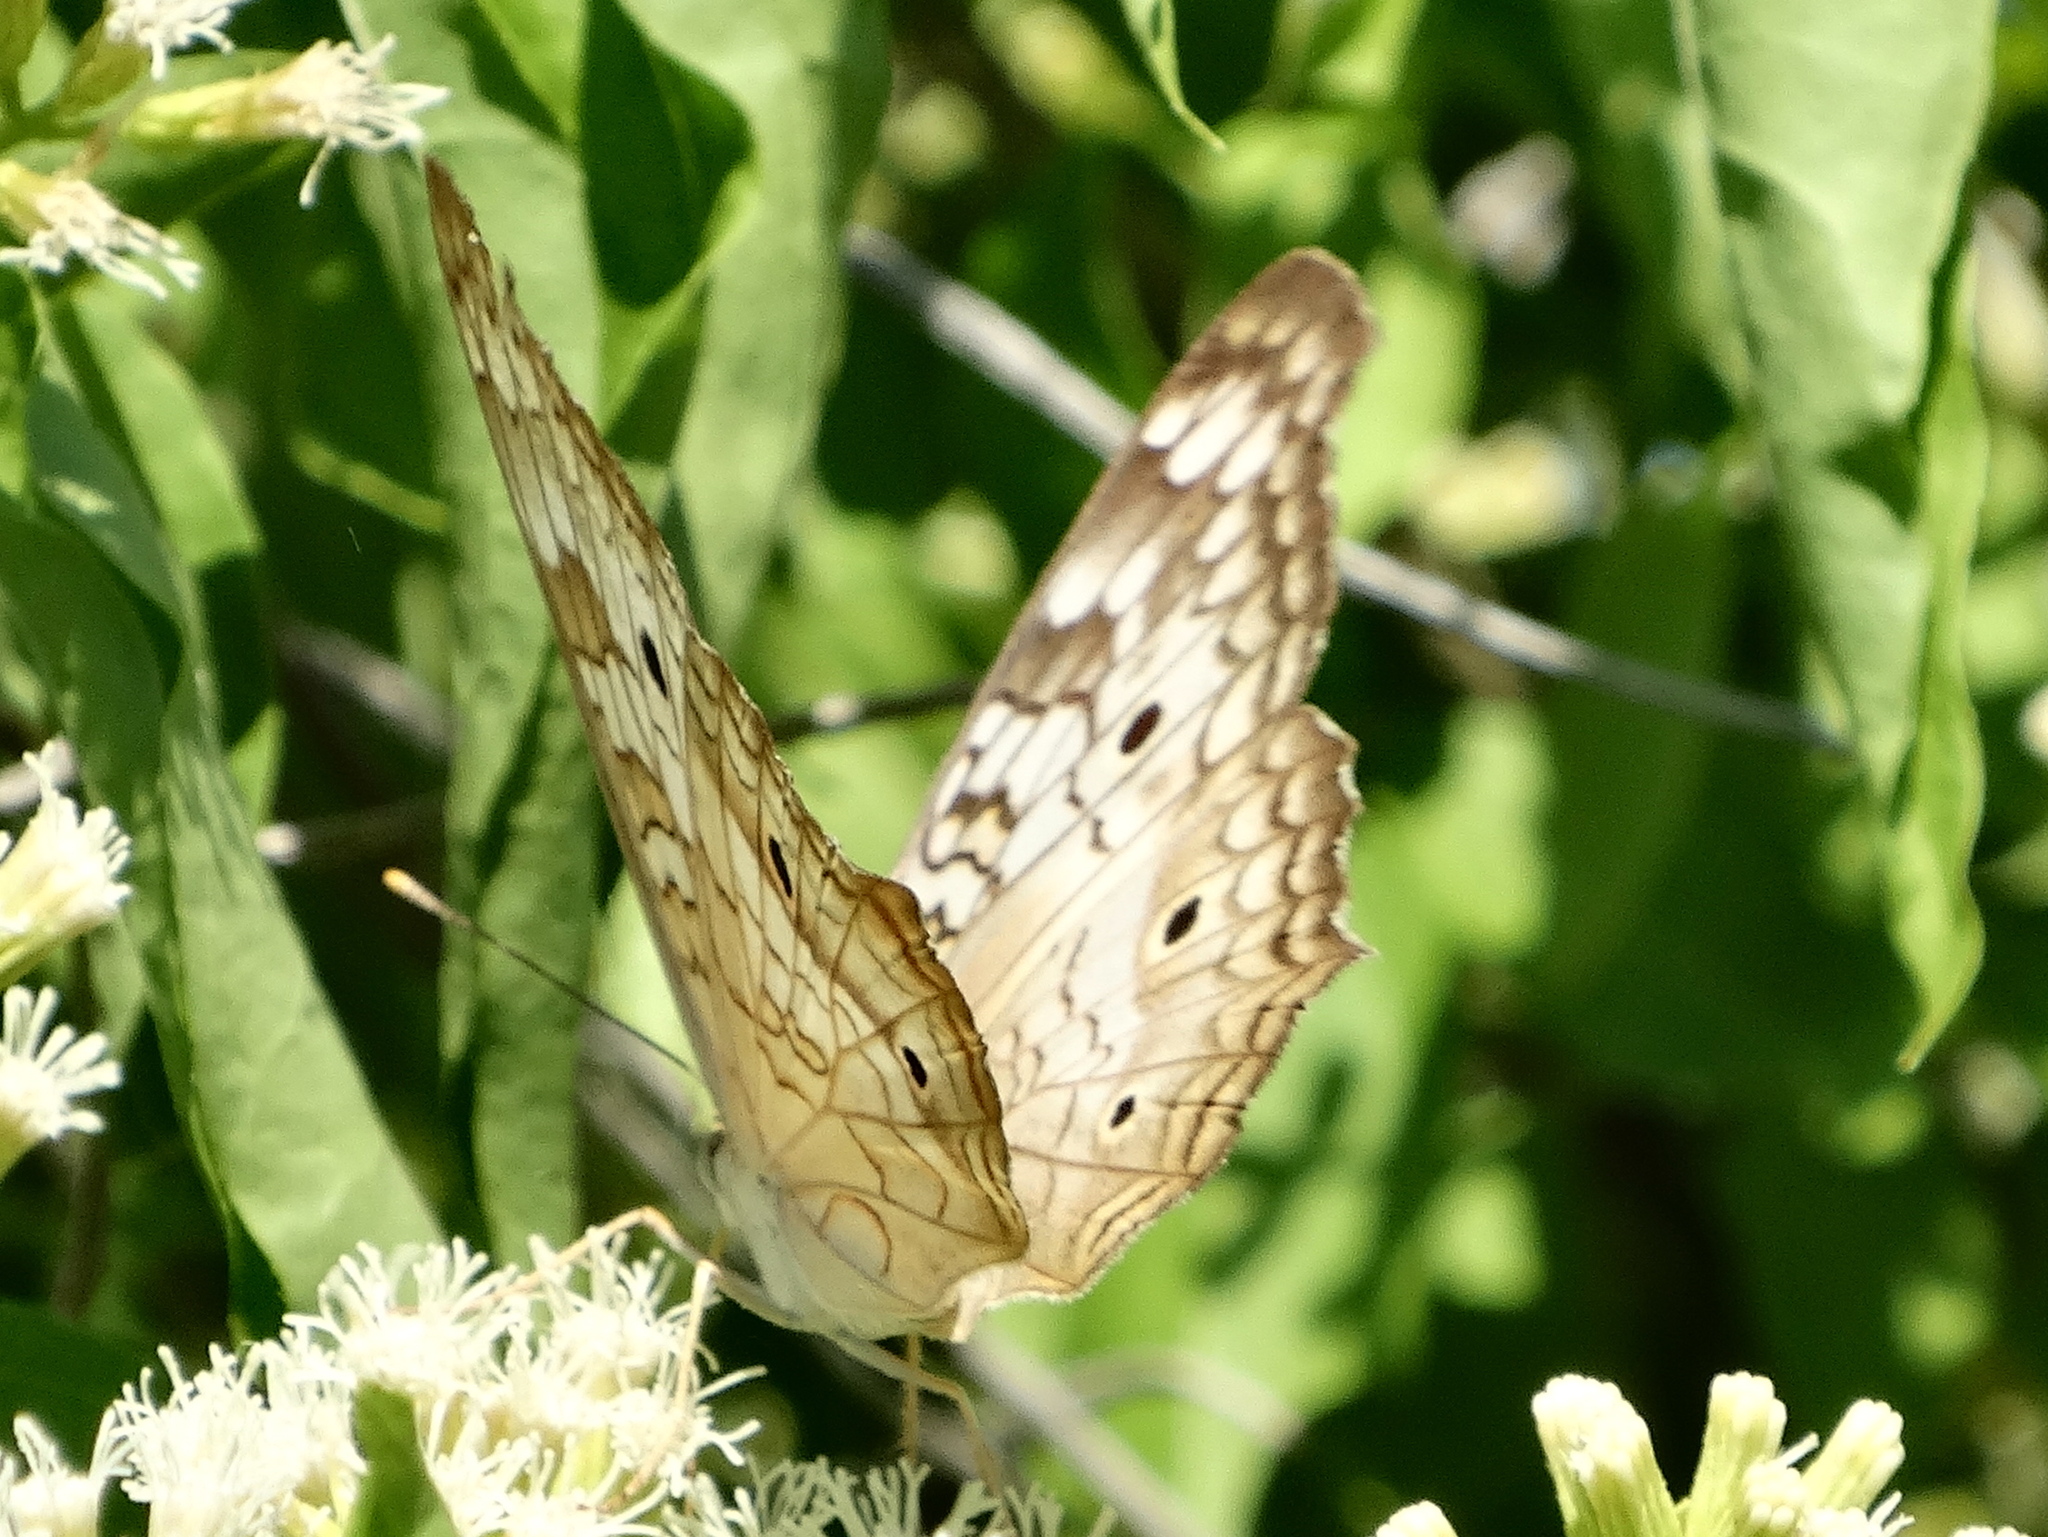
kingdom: Animalia
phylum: Arthropoda
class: Insecta
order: Lepidoptera
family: Nymphalidae
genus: Anartia
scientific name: Anartia jatrophae
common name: White peacock
